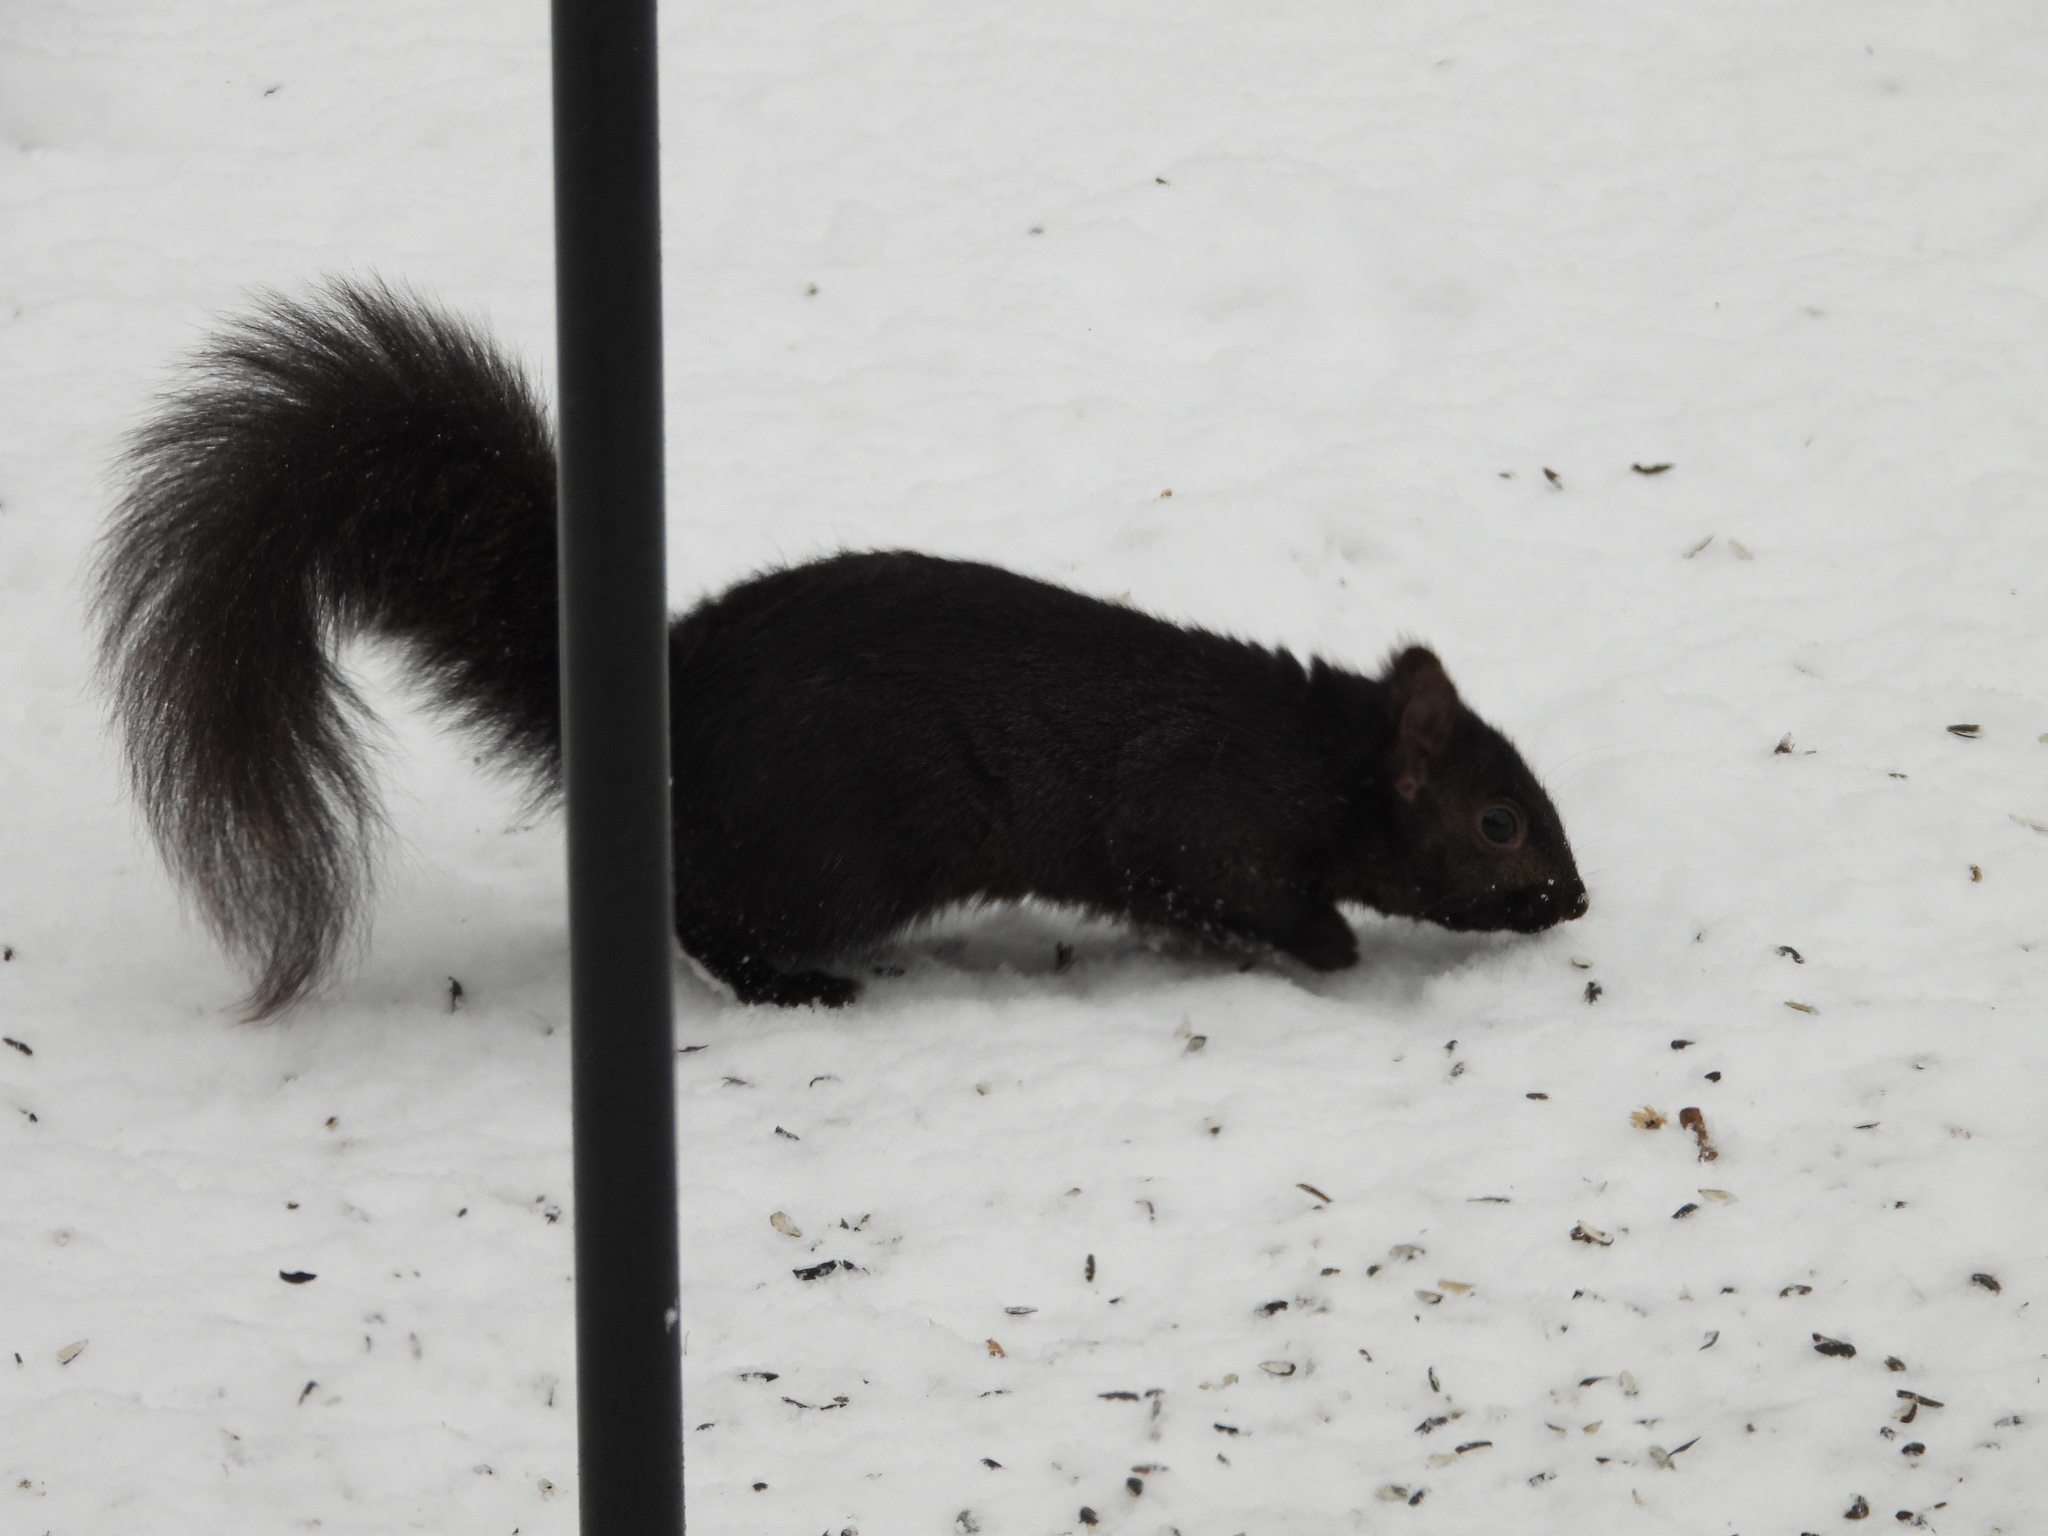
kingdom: Animalia
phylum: Chordata
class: Mammalia
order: Rodentia
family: Sciuridae
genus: Sciurus
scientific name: Sciurus carolinensis
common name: Eastern gray squirrel
